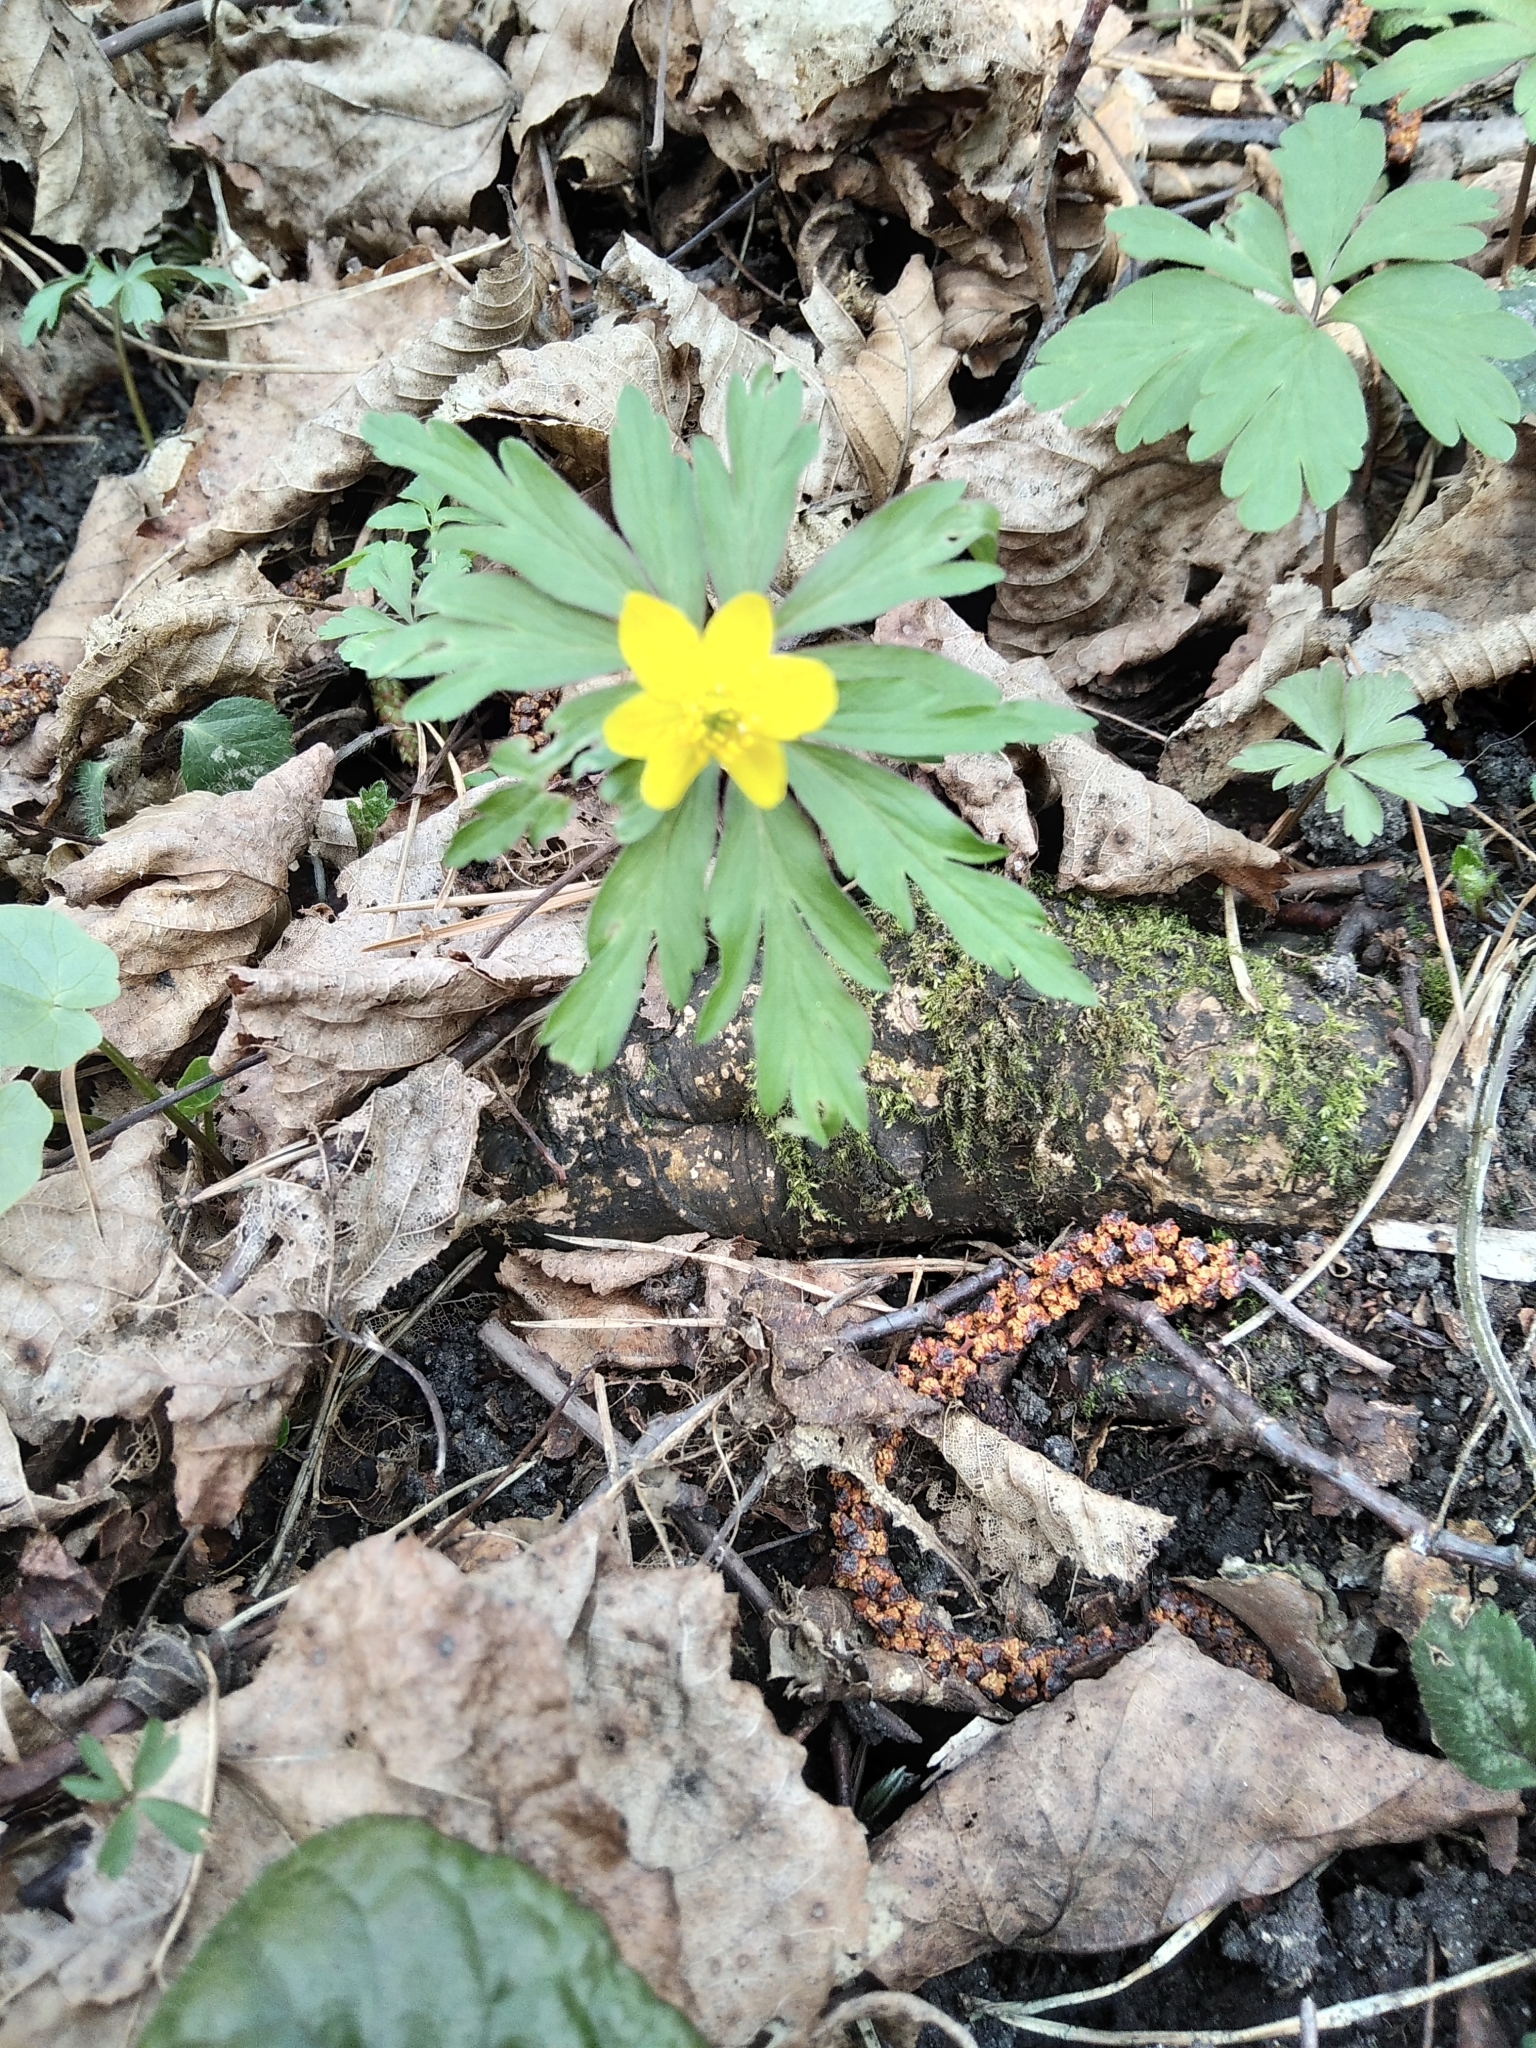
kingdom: Plantae
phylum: Tracheophyta
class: Magnoliopsida
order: Ranunculales
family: Ranunculaceae
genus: Anemone
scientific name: Anemone ranunculoides
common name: Yellow anemone
